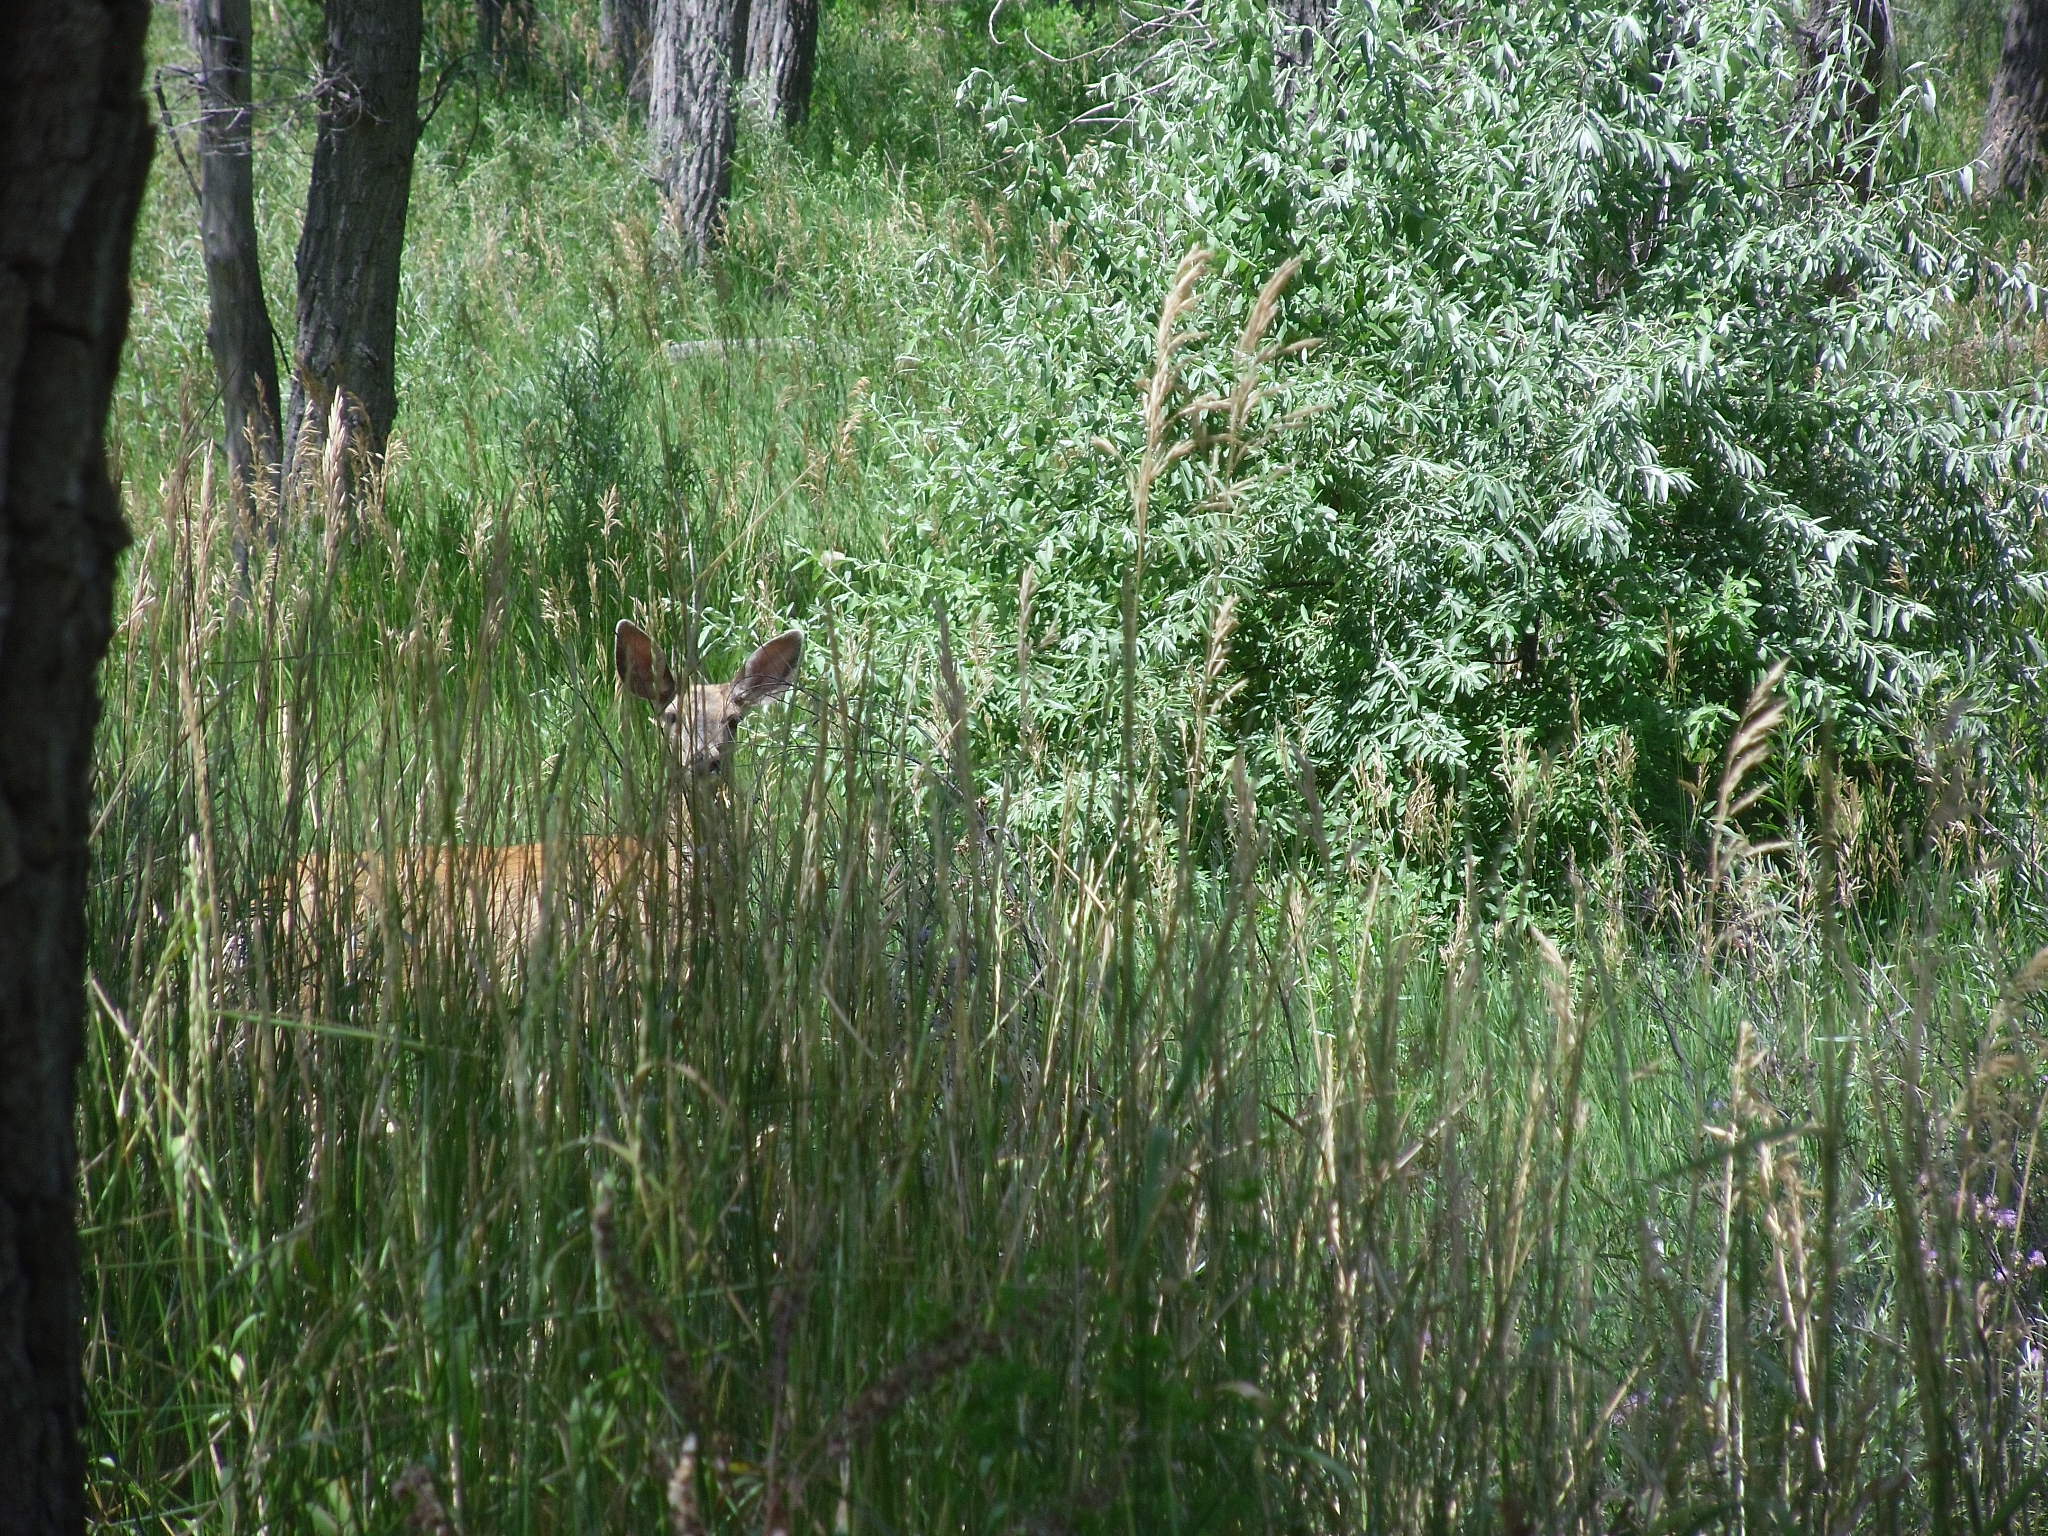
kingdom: Animalia
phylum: Chordata
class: Mammalia
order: Artiodactyla
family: Cervidae
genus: Odocoileus
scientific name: Odocoileus hemionus
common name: Mule deer
